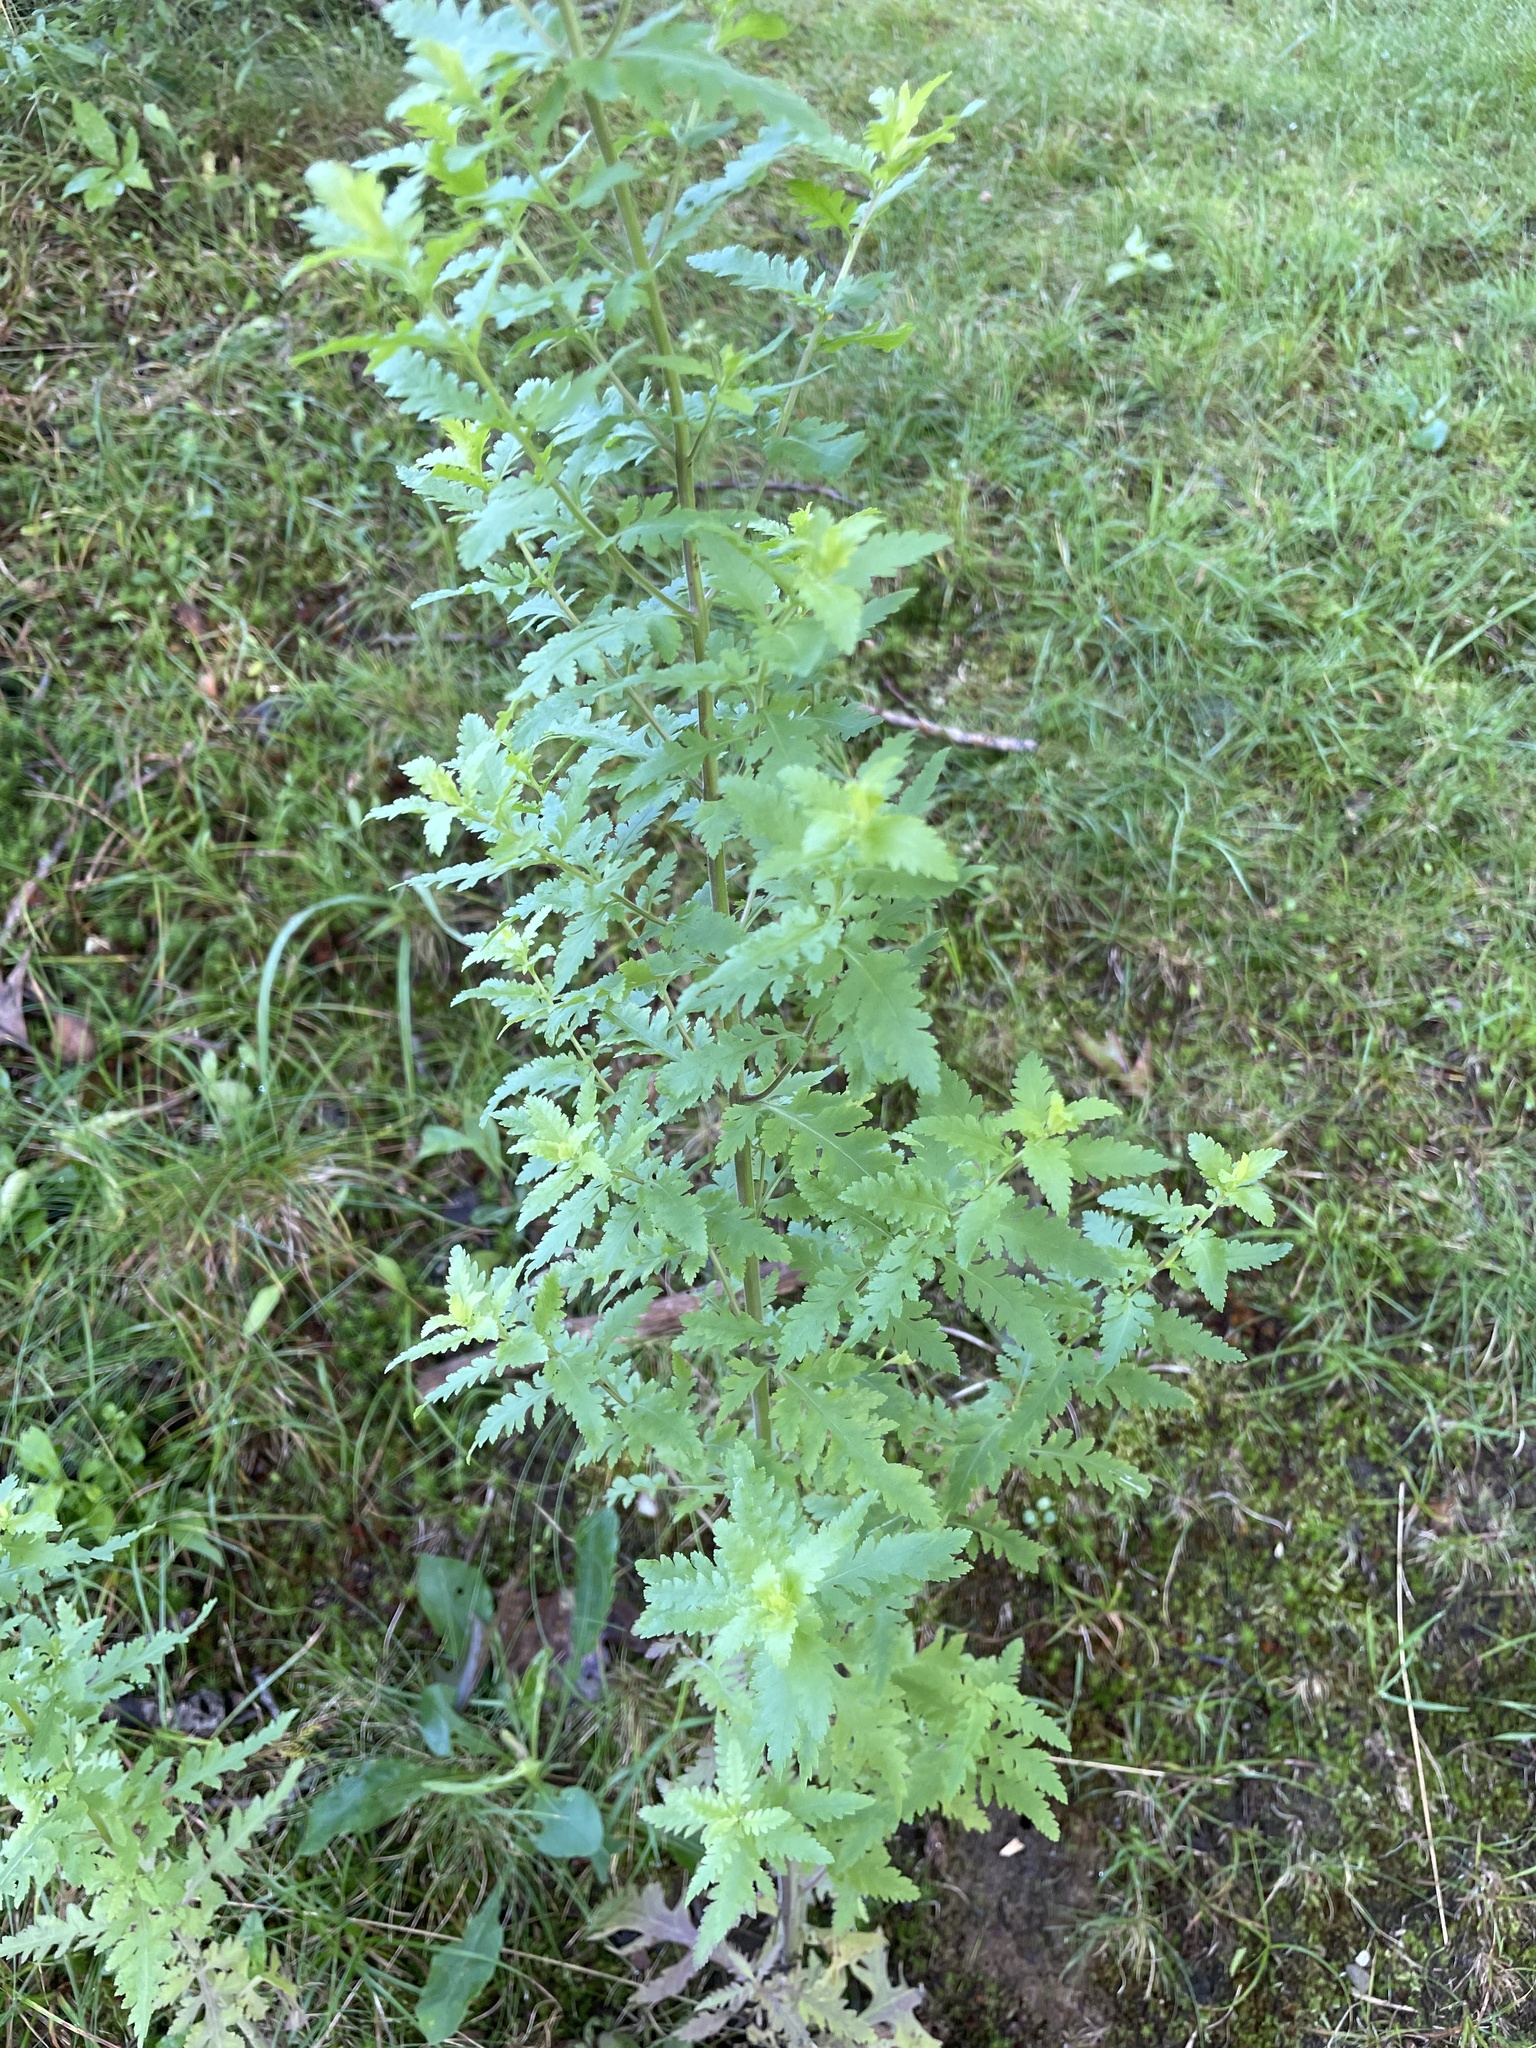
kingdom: Plantae
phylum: Tracheophyta
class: Magnoliopsida
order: Lamiales
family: Orobanchaceae
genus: Aureolaria
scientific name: Aureolaria pedicularia
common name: Annual false foxglove
